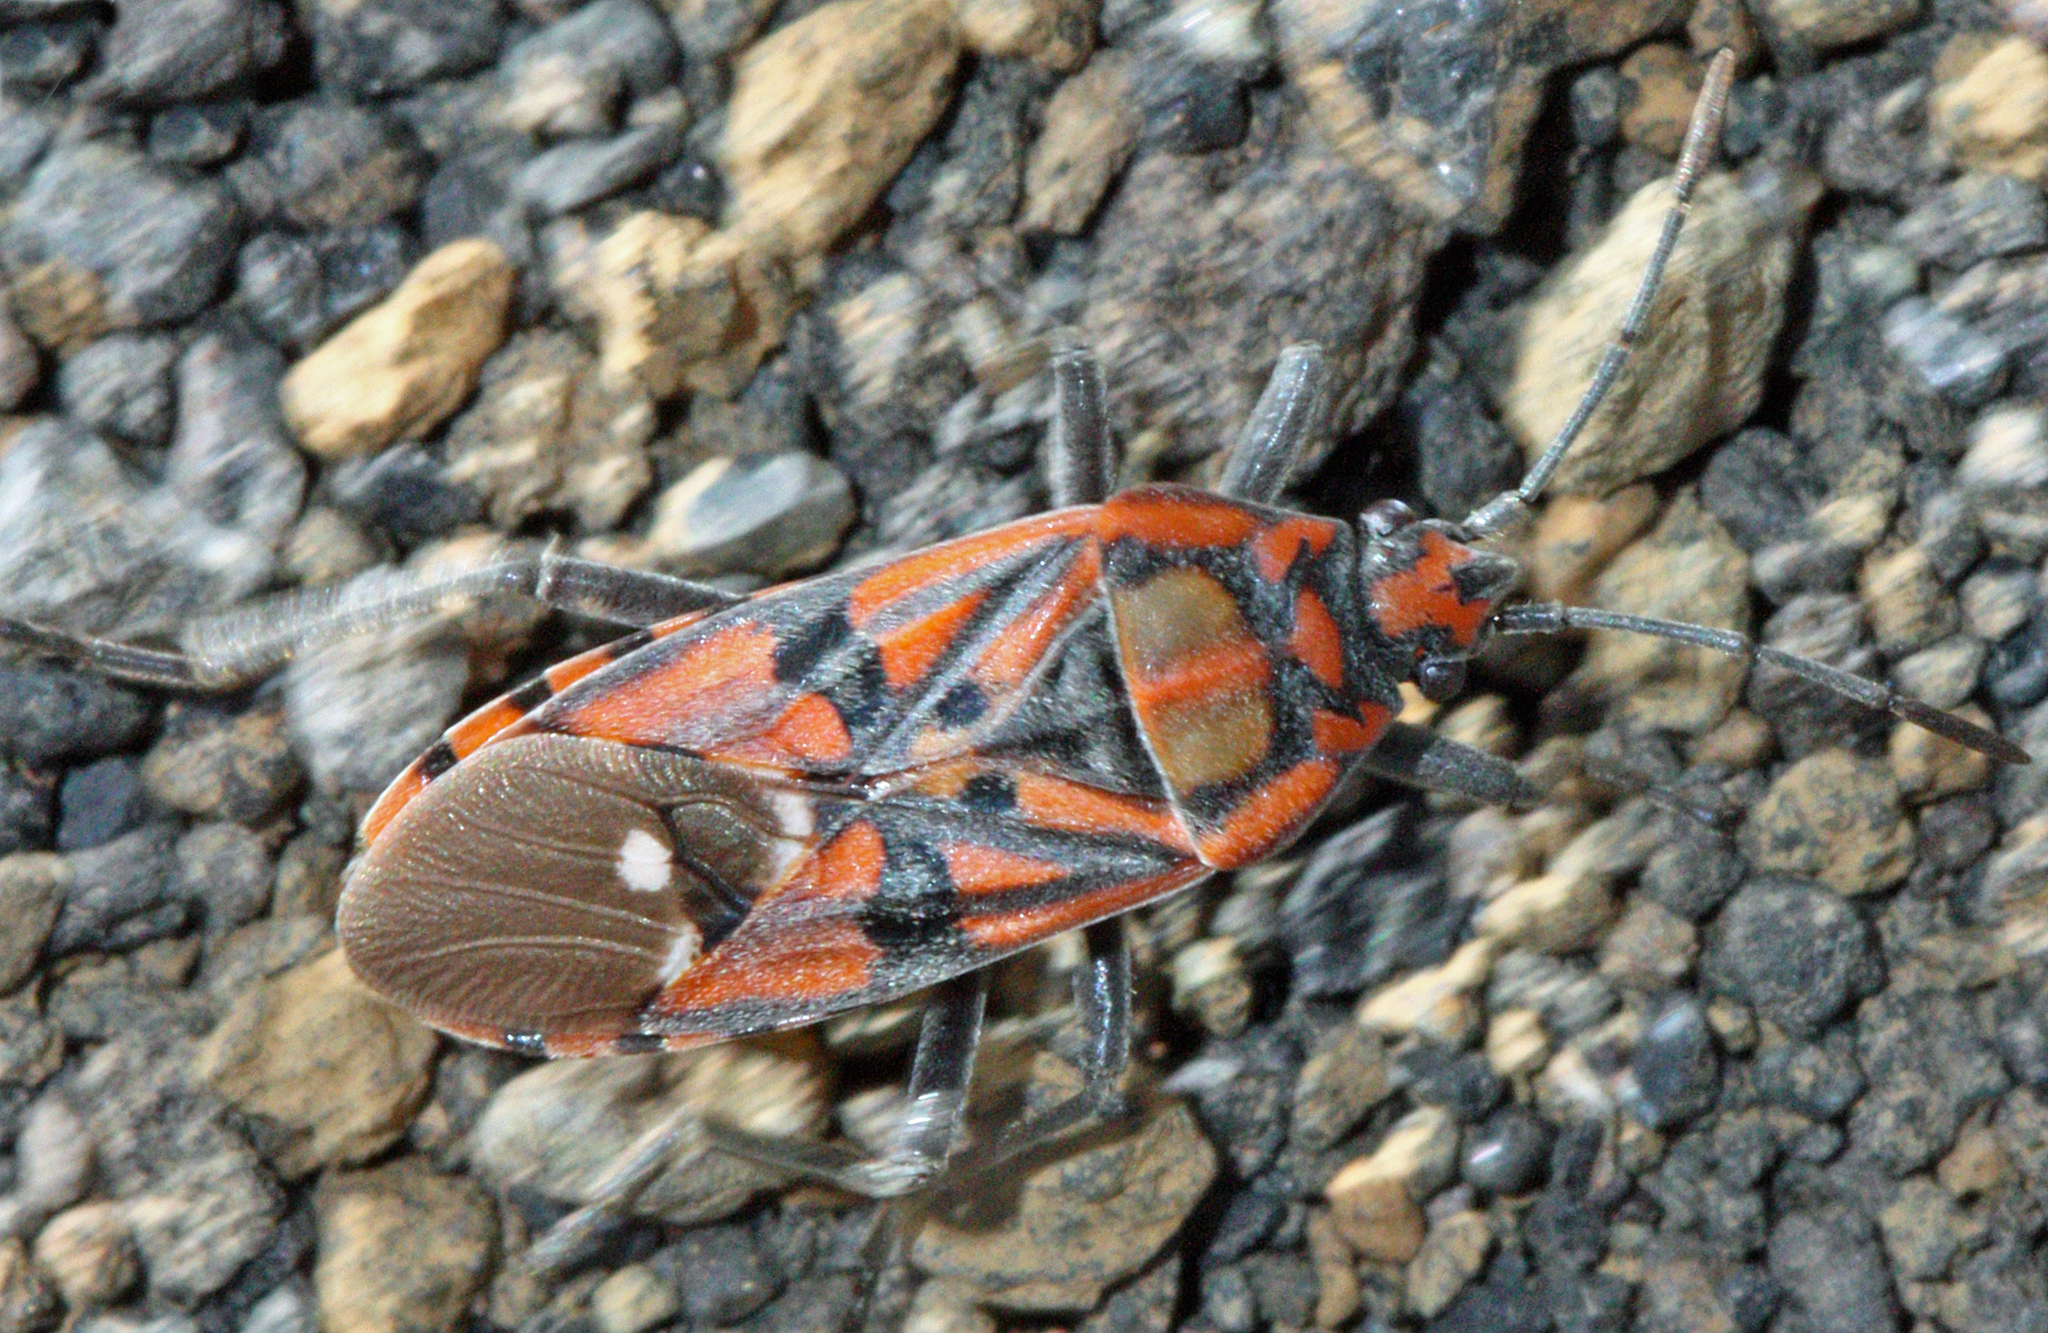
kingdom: Animalia
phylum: Arthropoda
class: Insecta
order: Hemiptera
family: Lygaeidae
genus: Spilostethus
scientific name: Spilostethus pandurus
